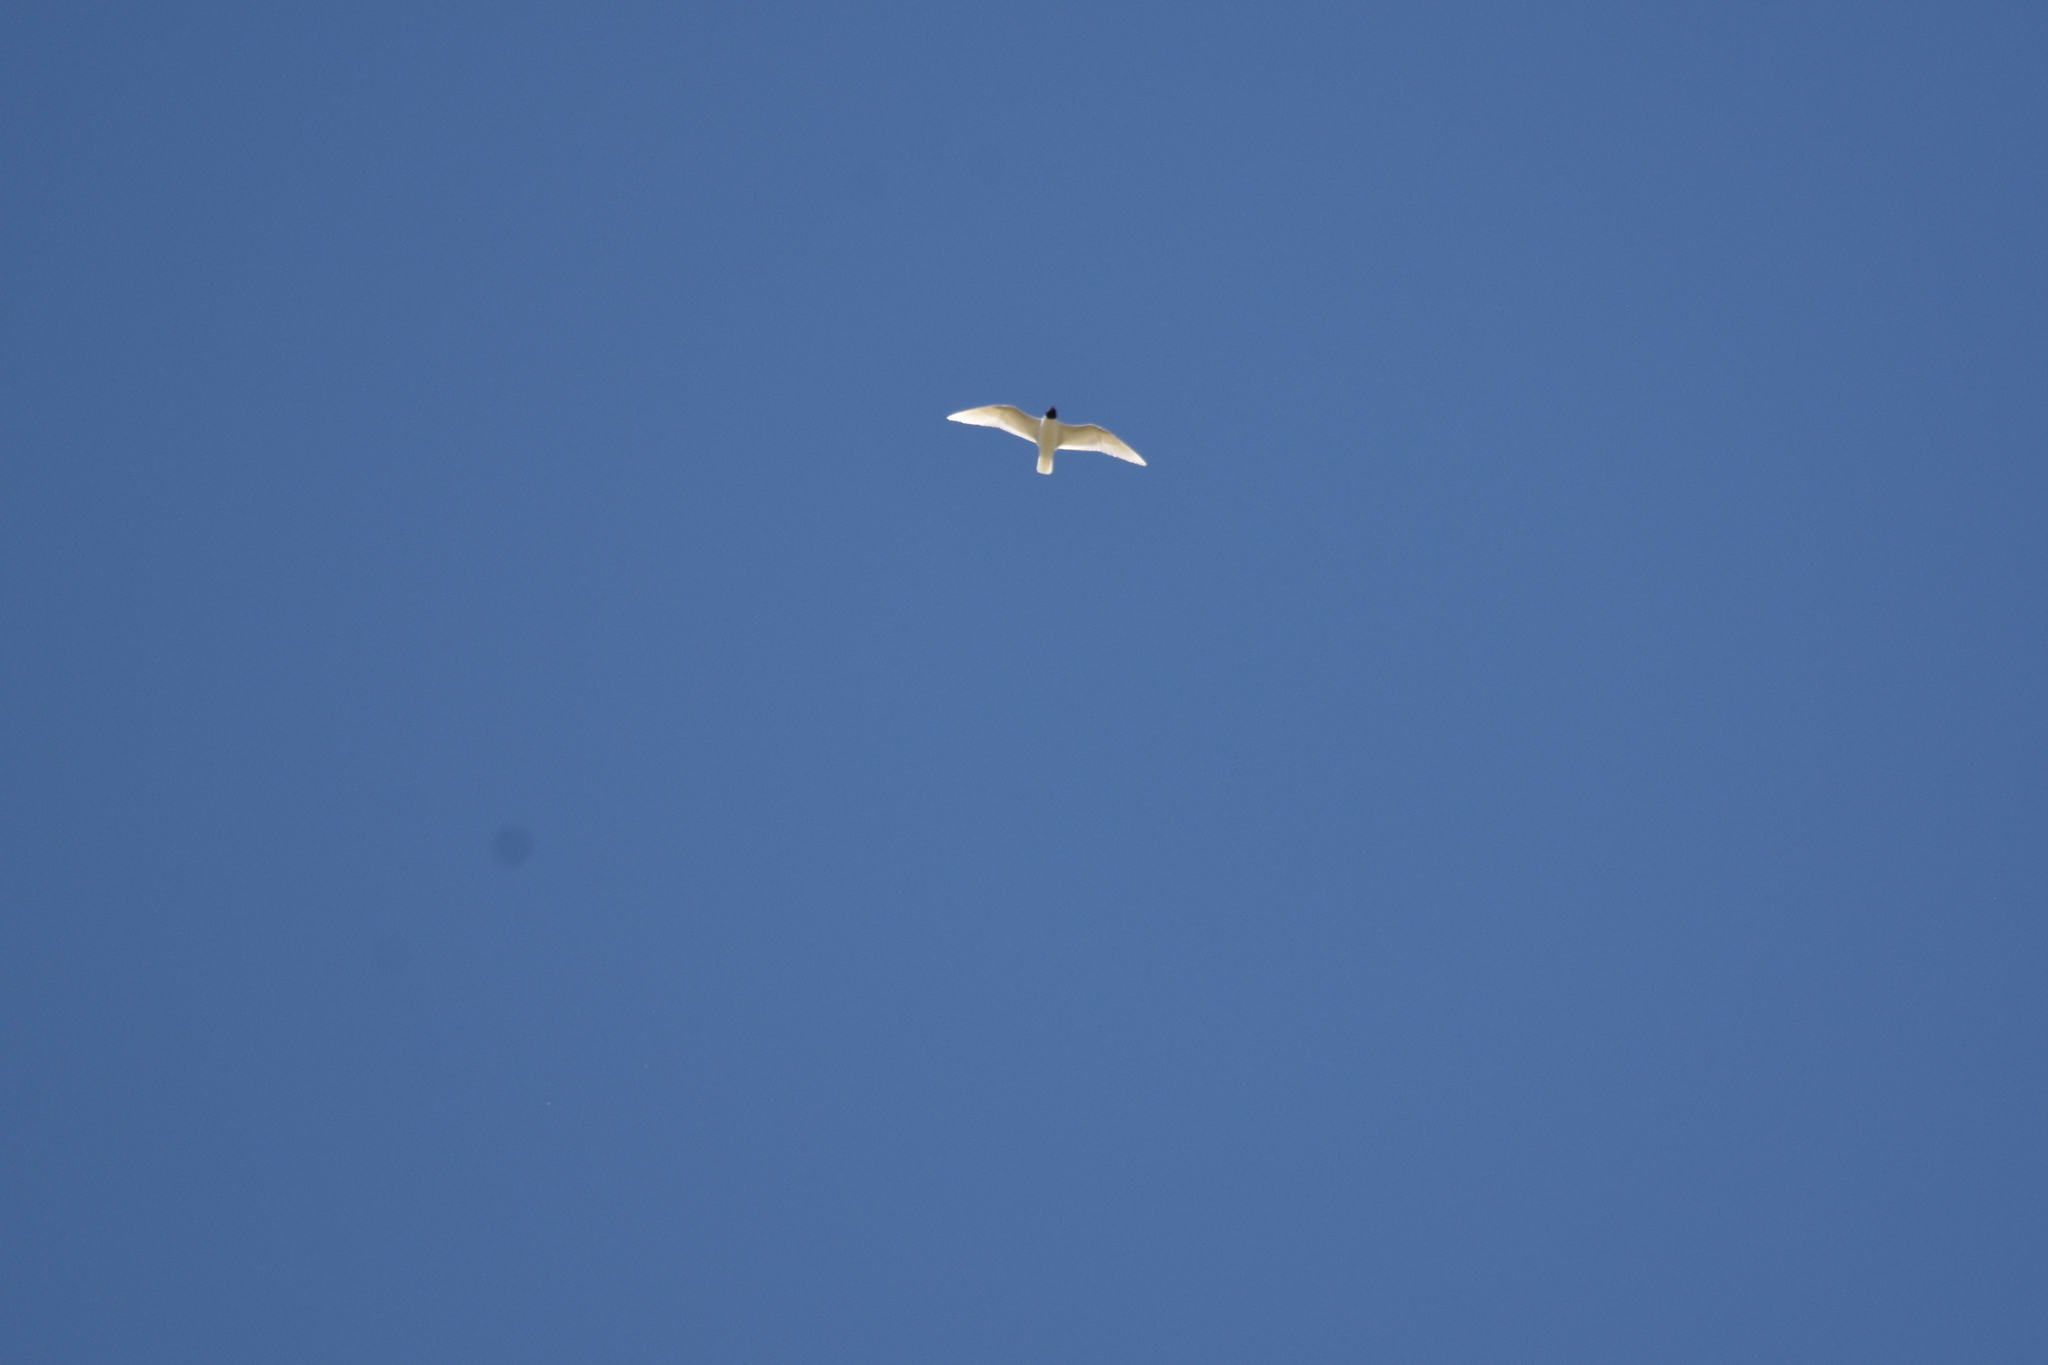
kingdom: Animalia
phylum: Chordata
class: Aves
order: Charadriiformes
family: Laridae
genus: Ichthyaetus
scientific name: Ichthyaetus melanocephalus
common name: Mediterranean gull
